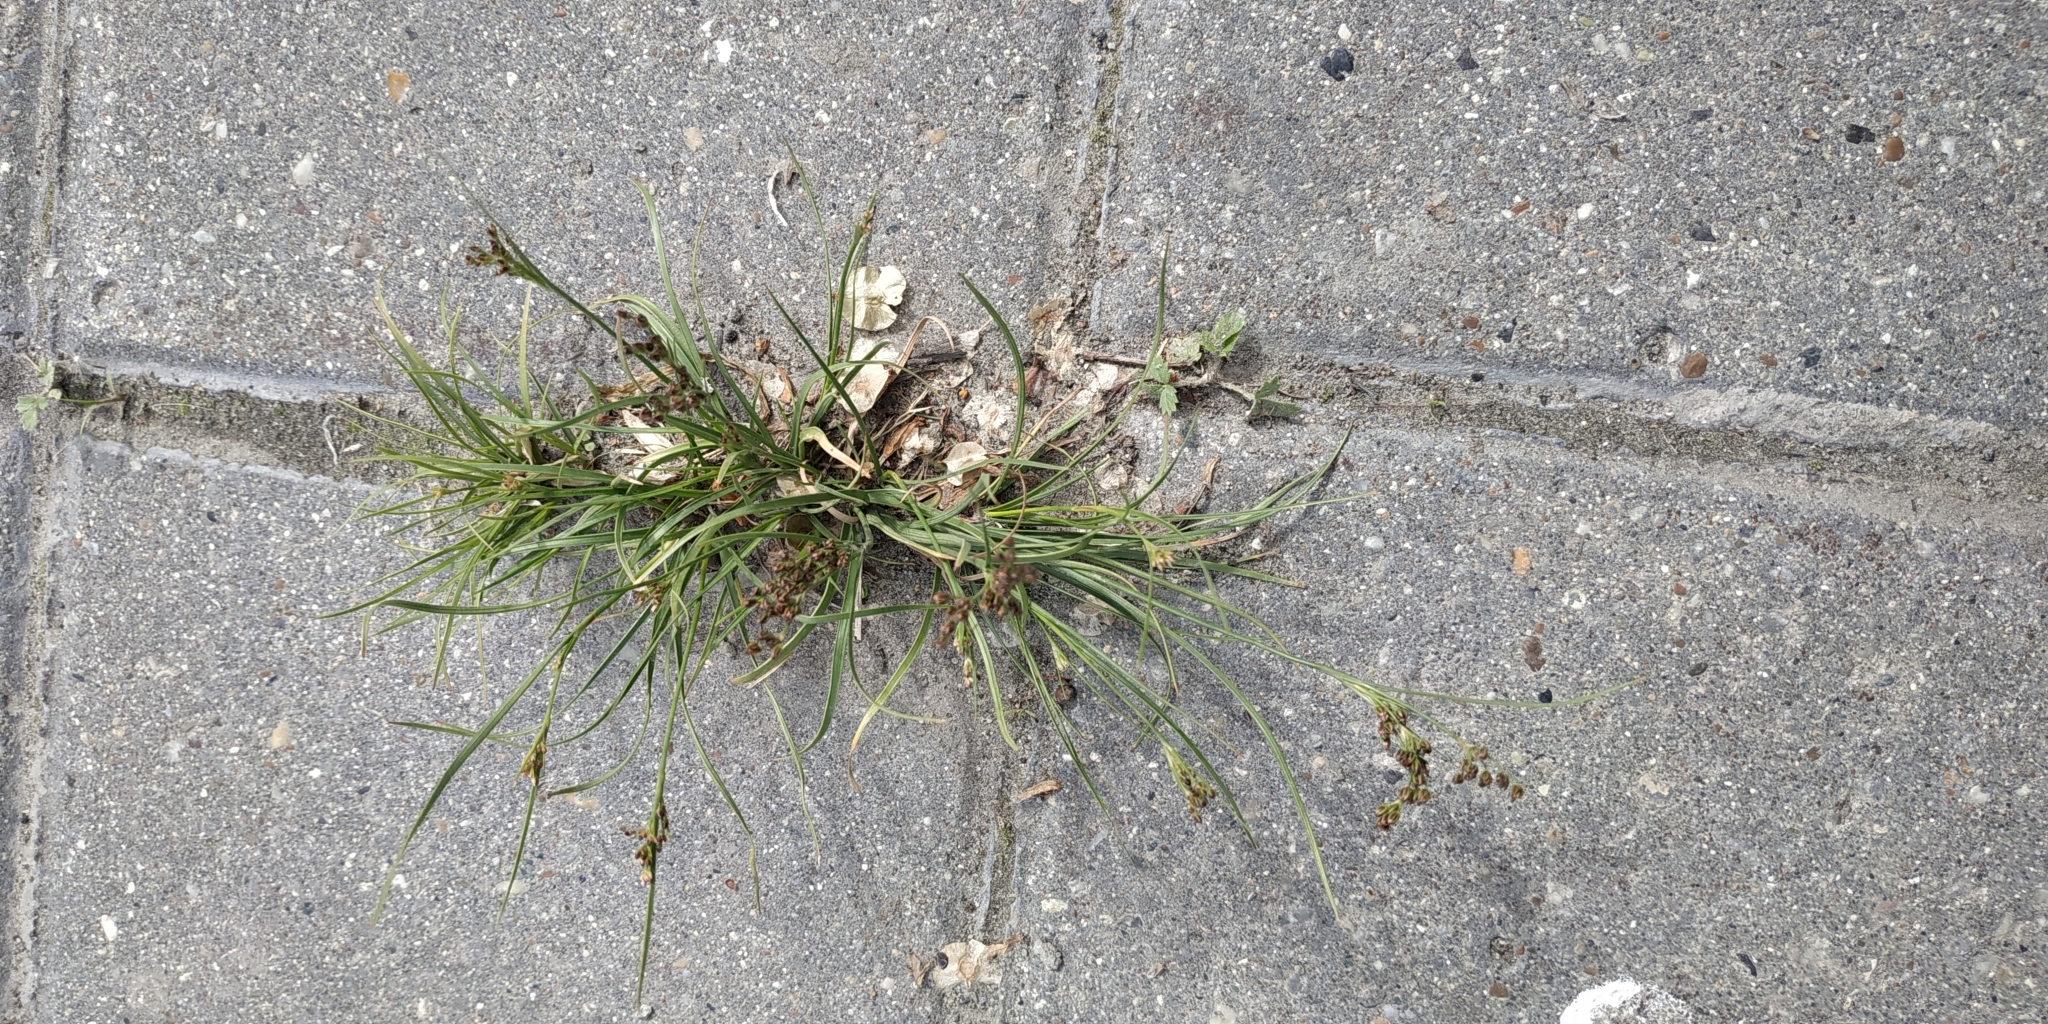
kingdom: Plantae
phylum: Tracheophyta
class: Liliopsida
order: Poales
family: Juncaceae
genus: Juncus
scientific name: Juncus compressus
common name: Round-fruited rush
